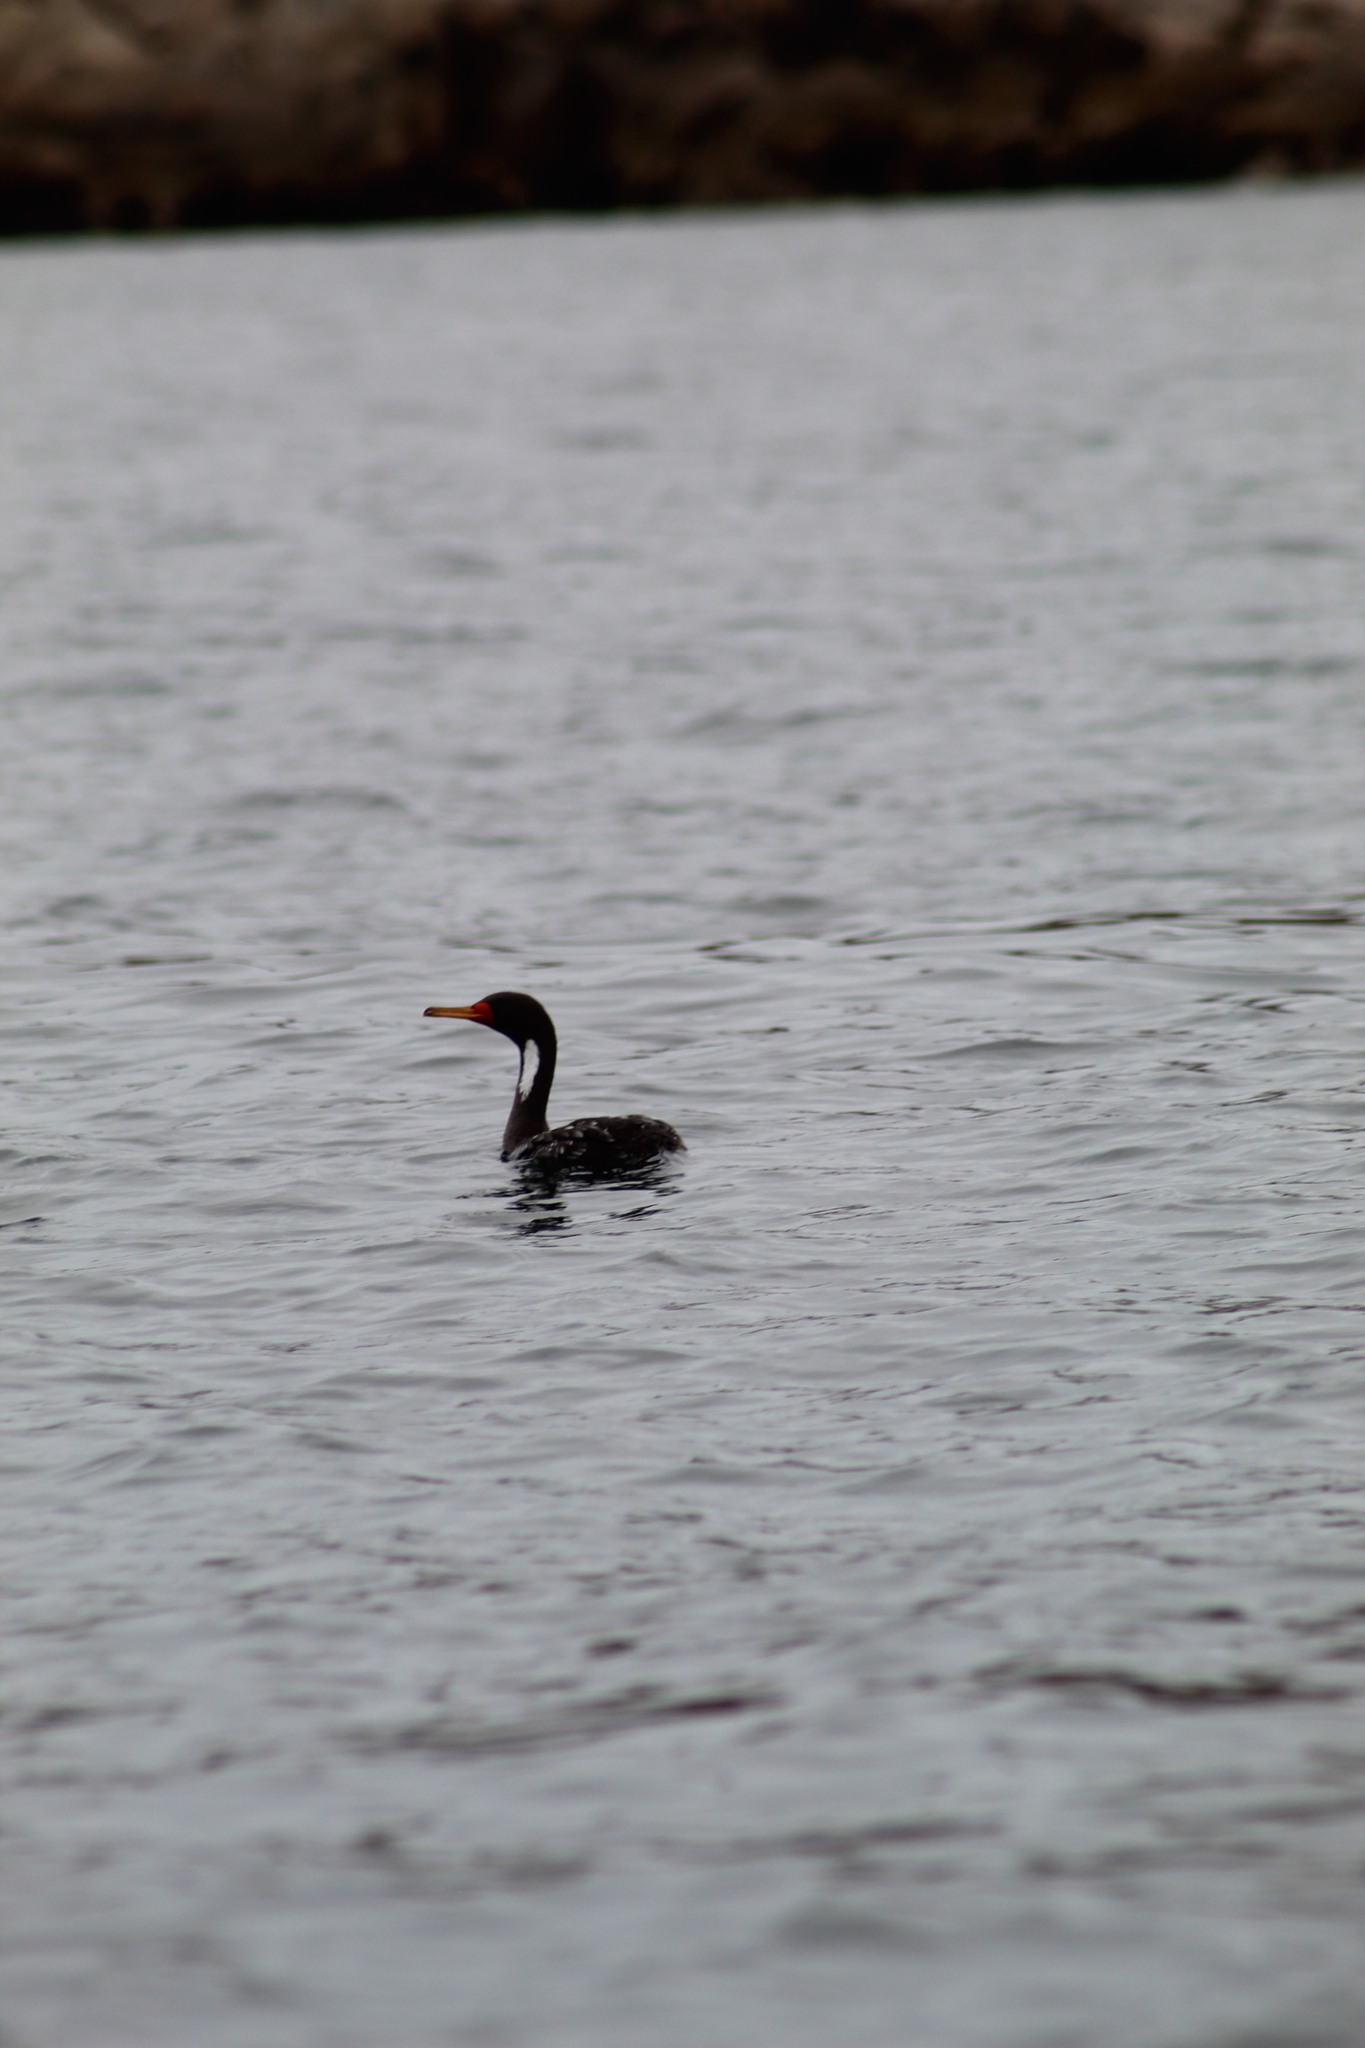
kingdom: Animalia
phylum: Chordata
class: Aves
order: Suliformes
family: Phalacrocoracidae
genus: Phalacrocorax
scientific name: Phalacrocorax gaimardi
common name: Red-legged cormorant
